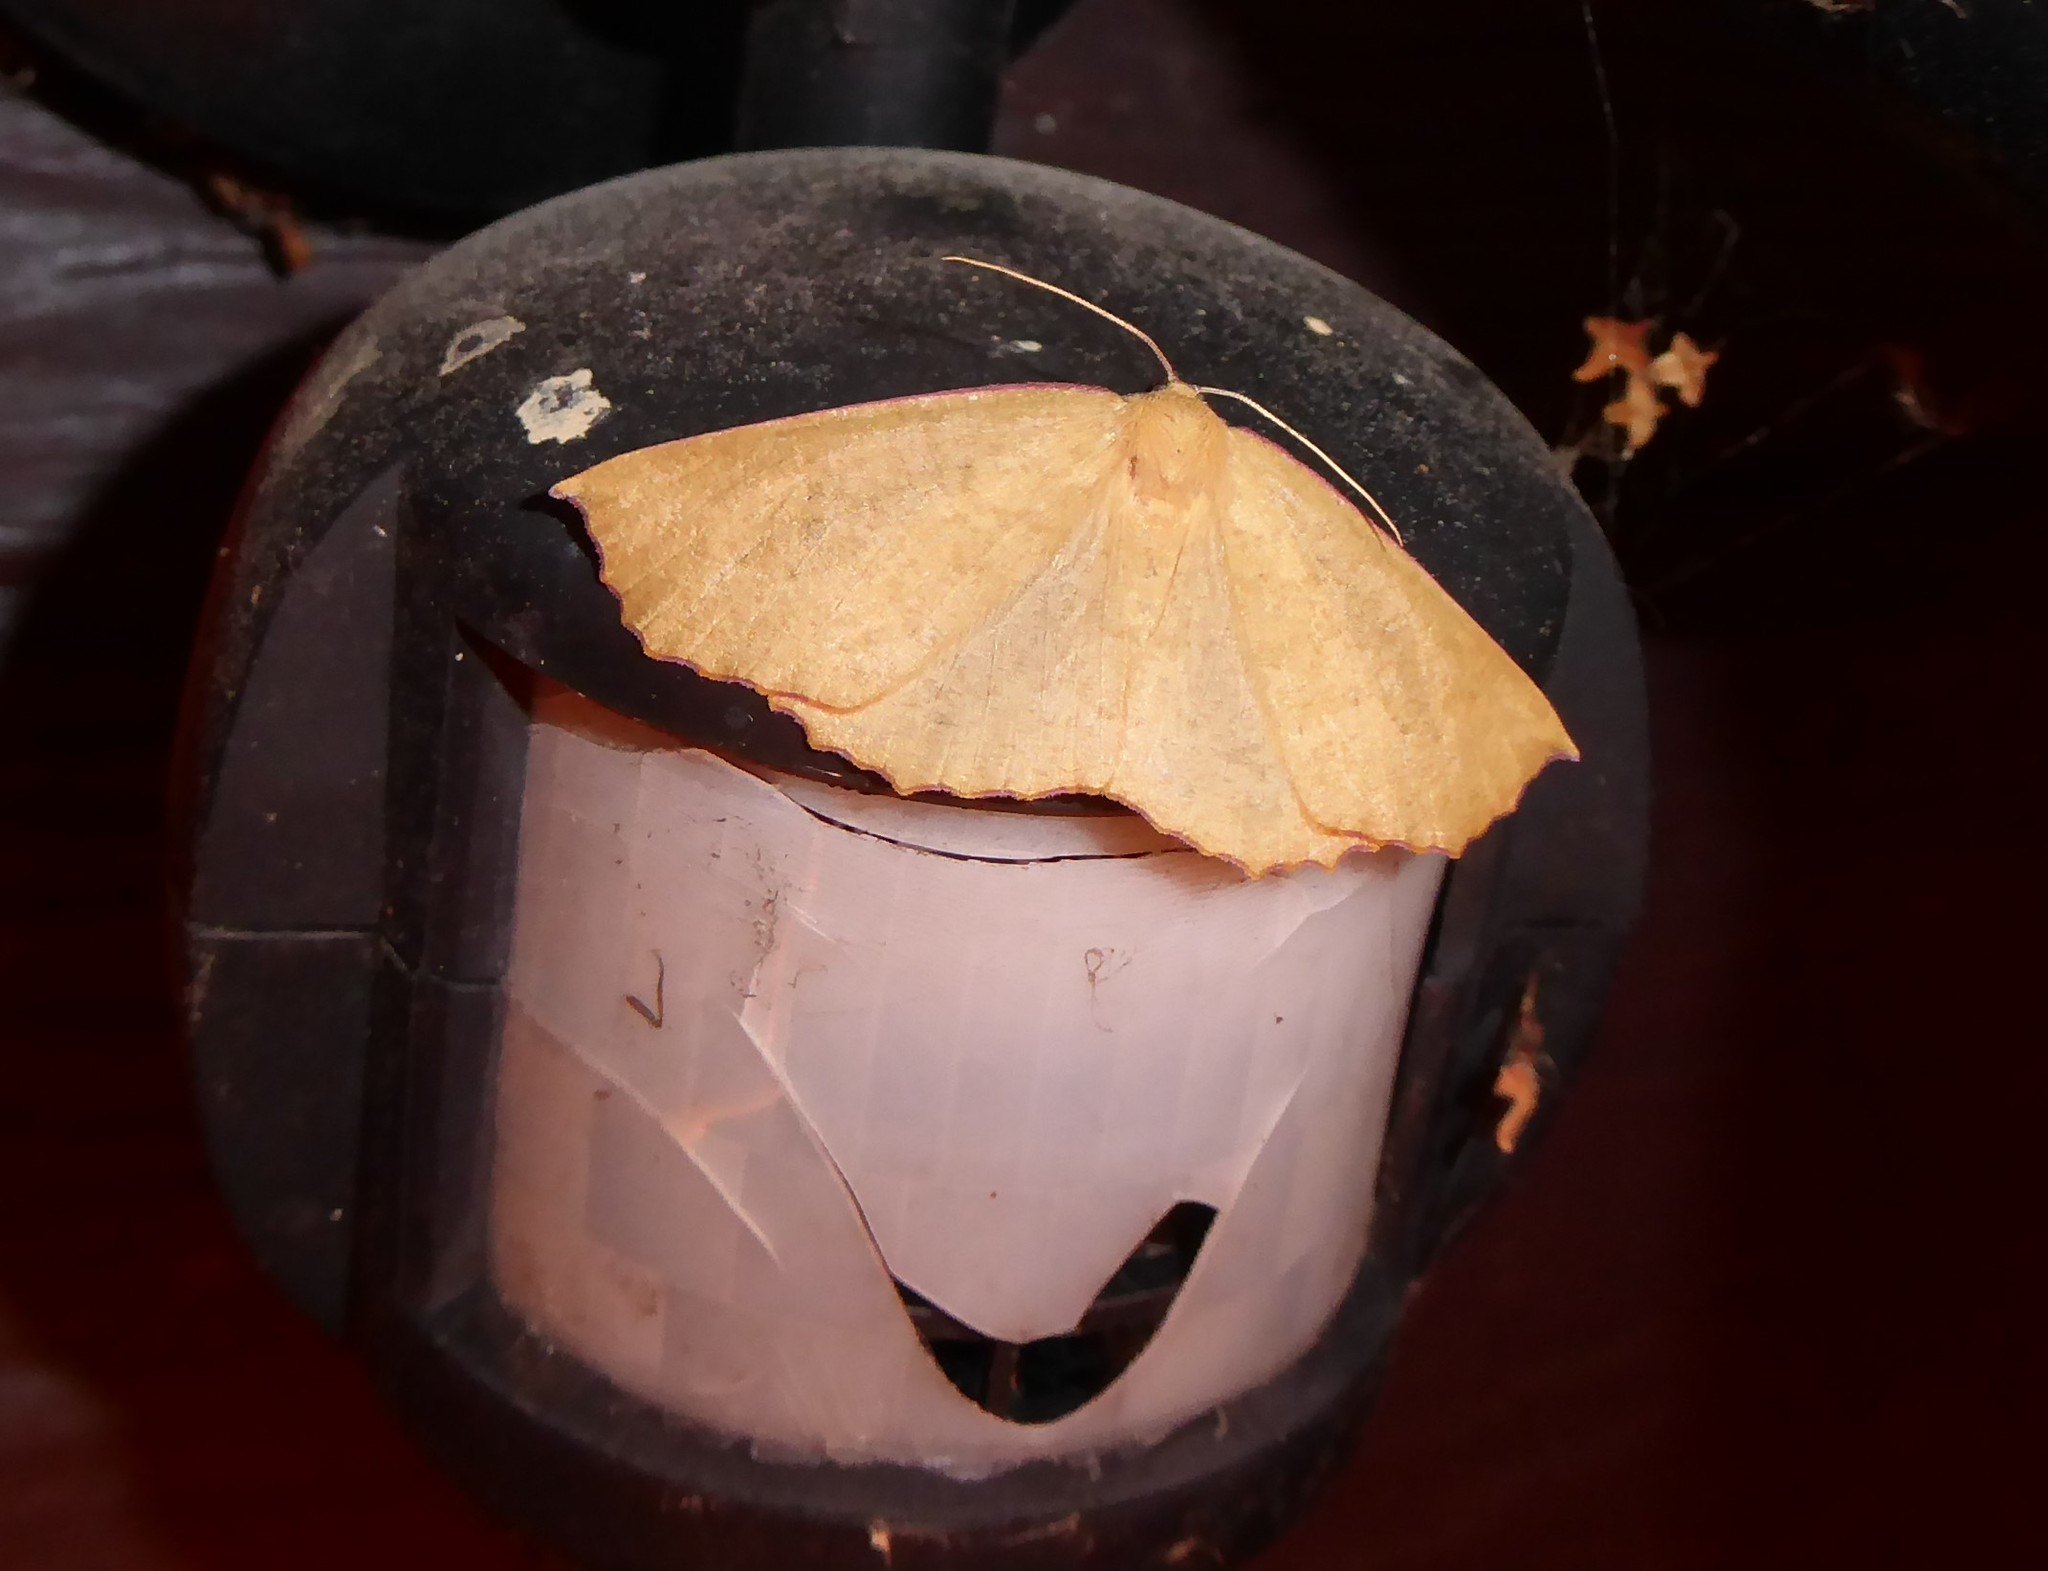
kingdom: Animalia
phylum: Arthropoda
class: Insecta
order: Lepidoptera
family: Geometridae
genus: Xyridacma
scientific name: Xyridacma alectoraria
